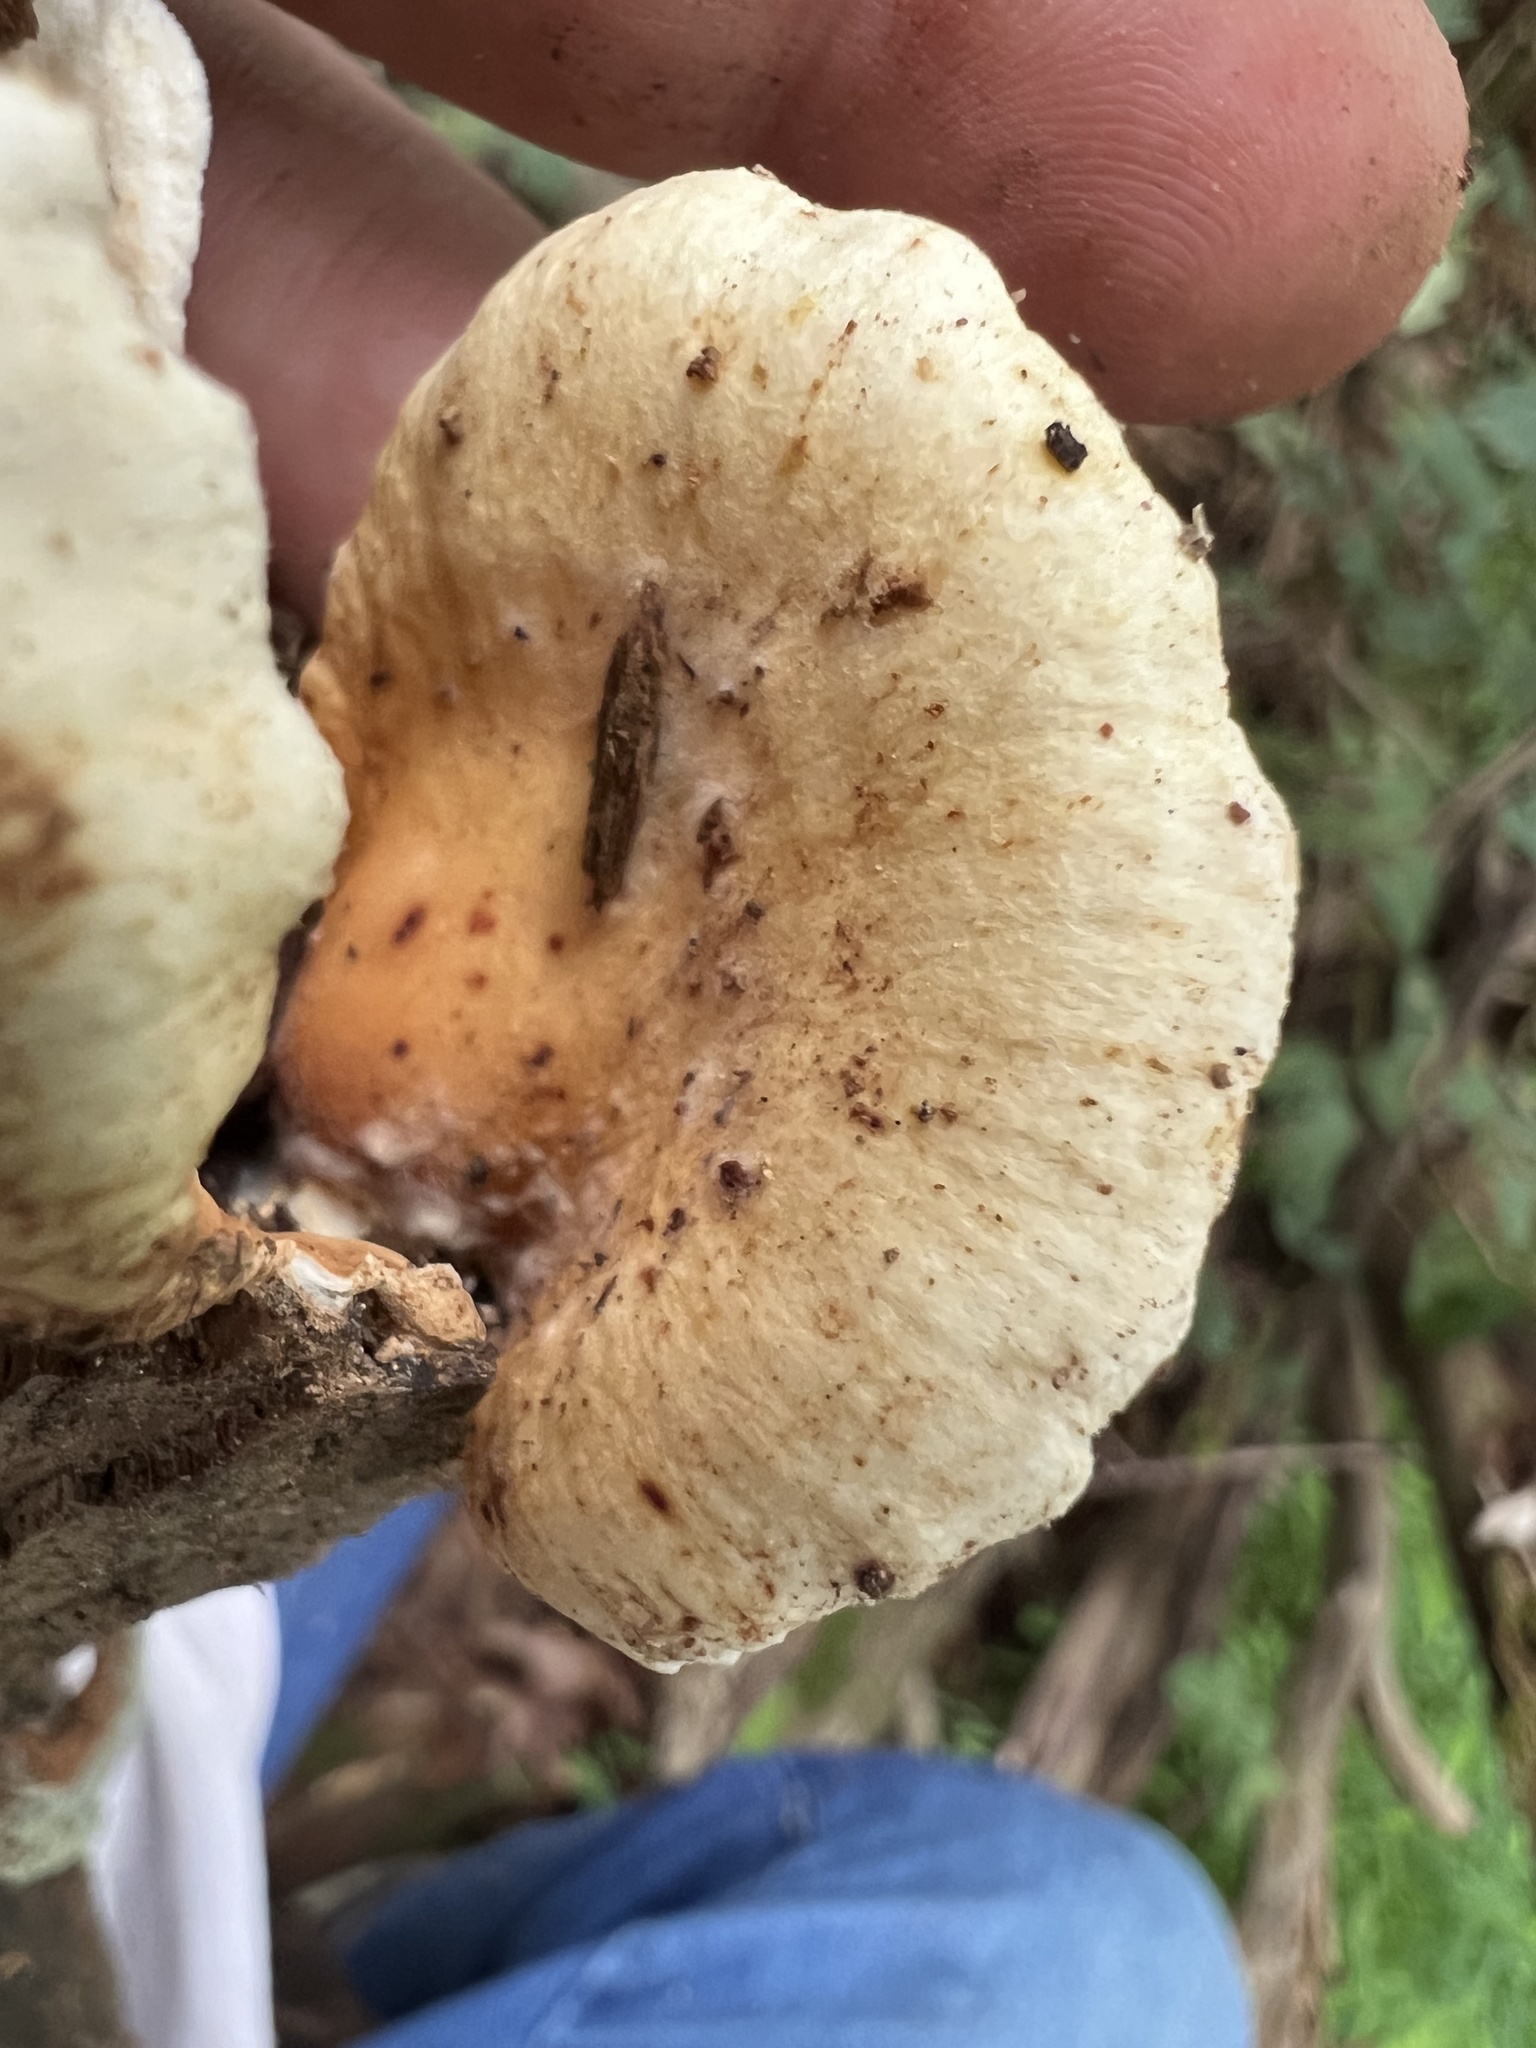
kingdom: Fungi
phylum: Basidiomycota
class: Agaricomycetes
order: Boletales
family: Tapinellaceae
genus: Tapinella
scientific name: Tapinella panuoides
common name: Oyster rollrim
